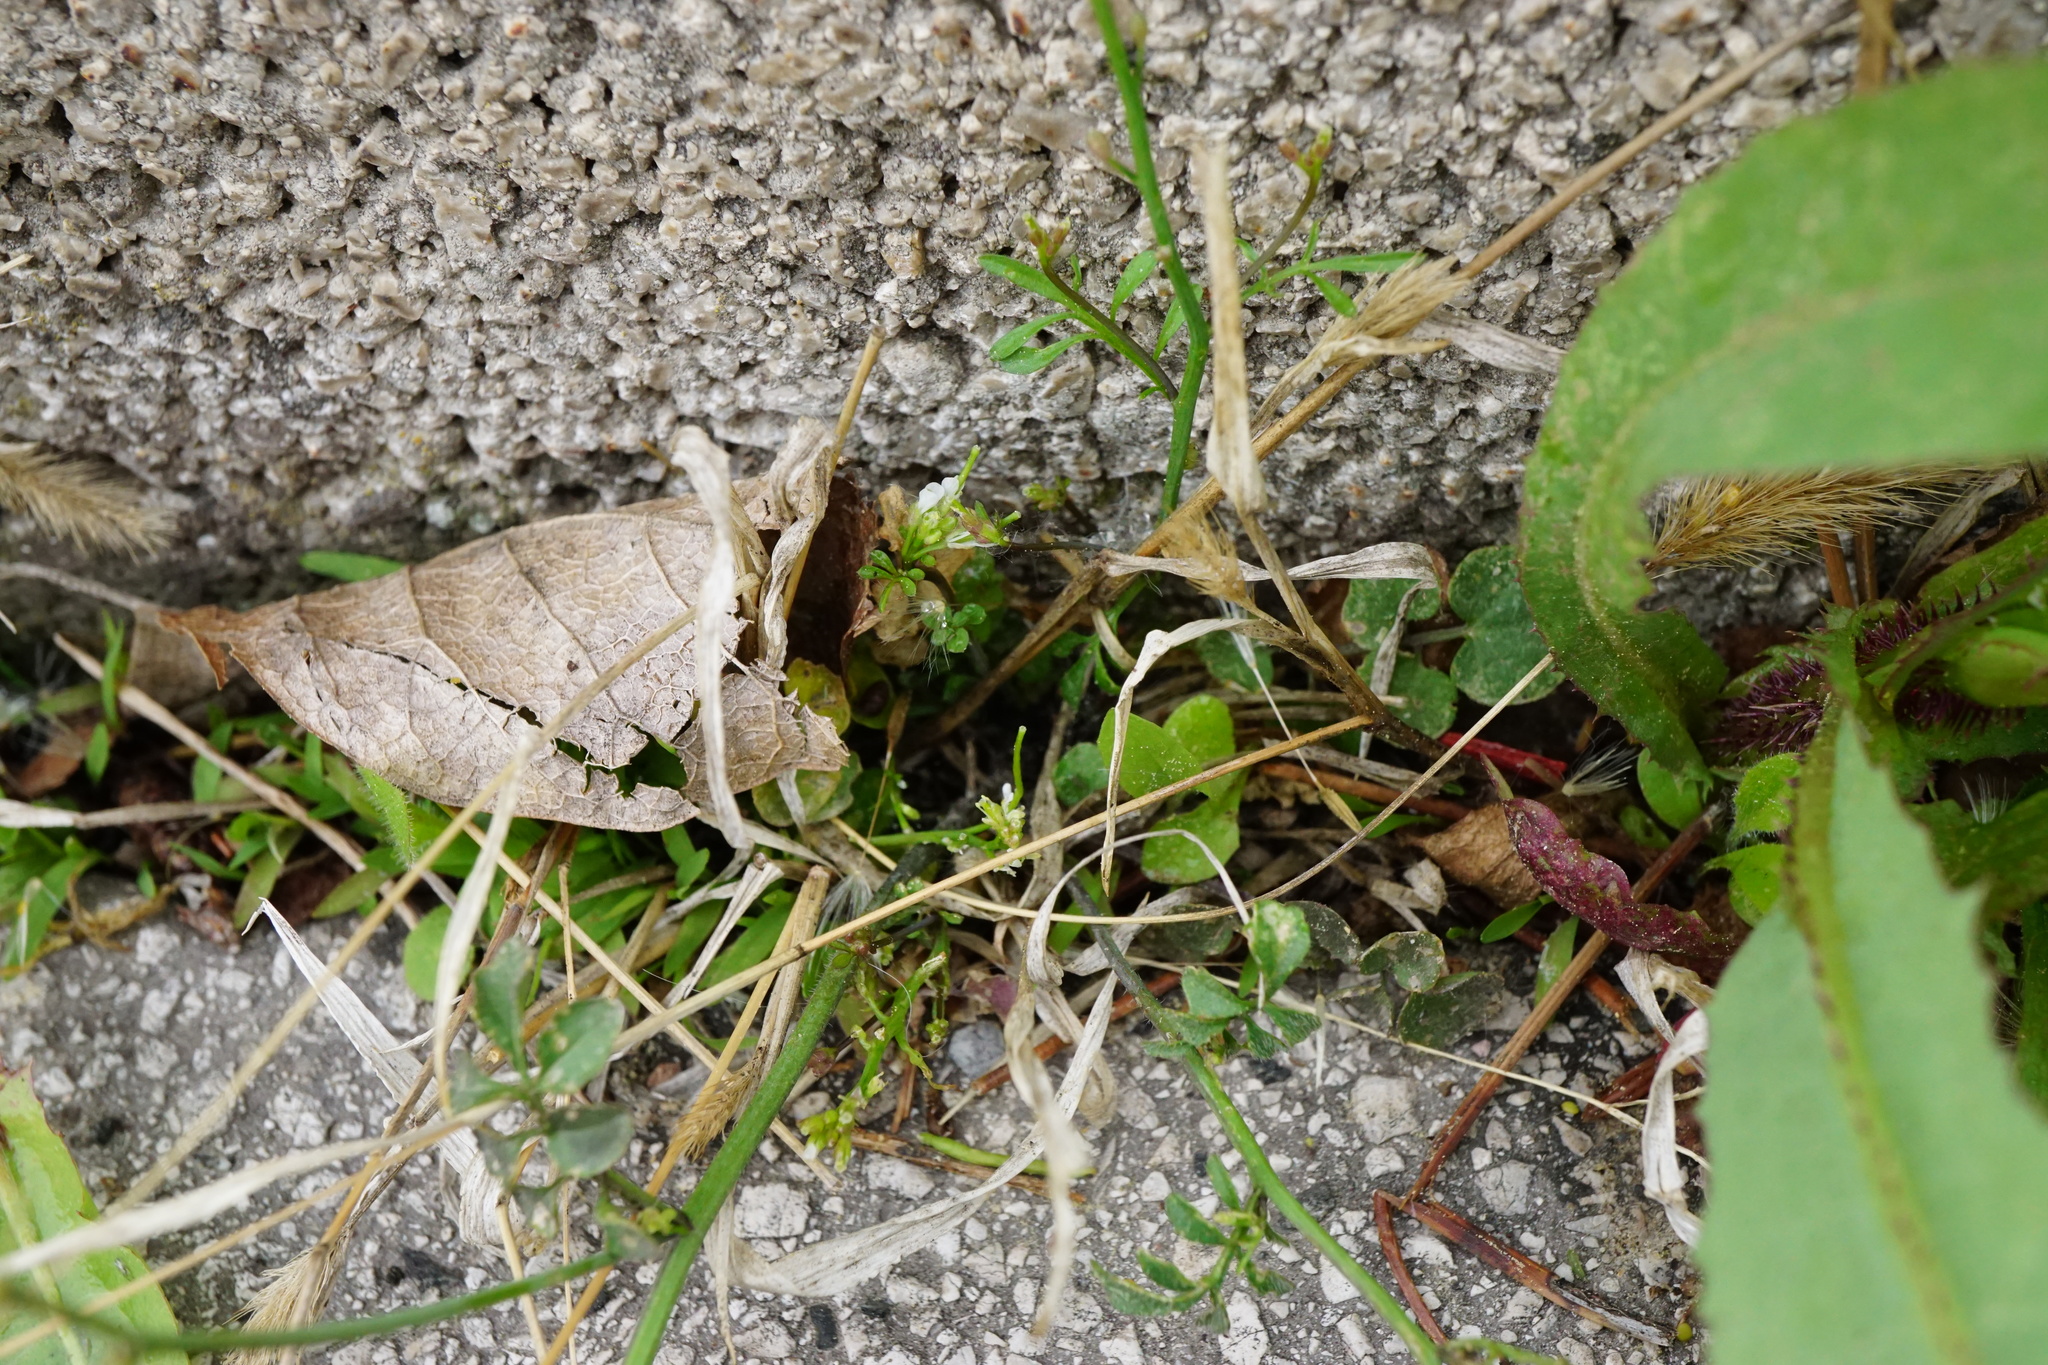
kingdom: Plantae
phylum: Tracheophyta
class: Magnoliopsida
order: Brassicales
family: Brassicaceae
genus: Cardamine
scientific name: Cardamine hirsuta
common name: Hairy bittercress
